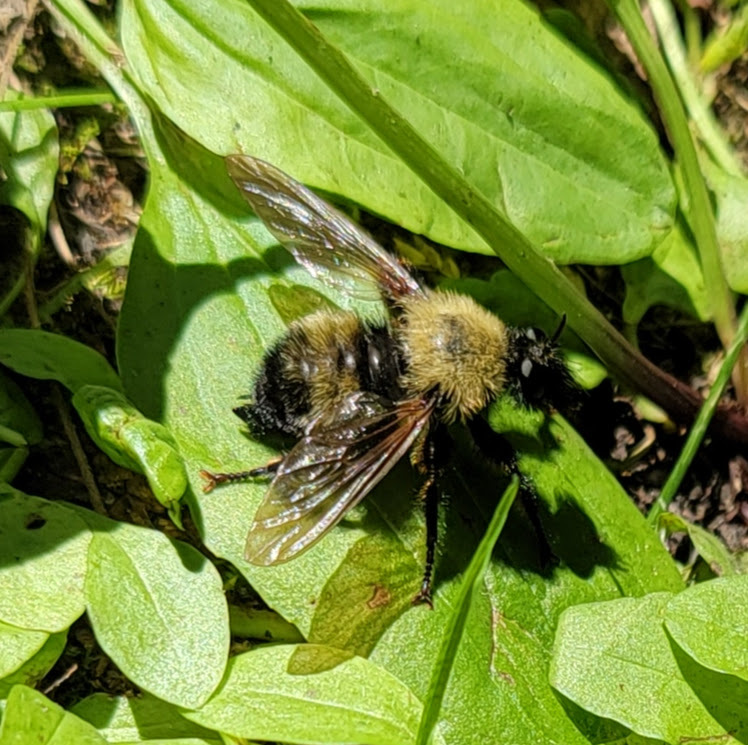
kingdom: Animalia
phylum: Arthropoda
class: Insecta
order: Diptera
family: Asilidae
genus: Laphria
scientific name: Laphria thoracica
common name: Bumble bee mimic robber fly
